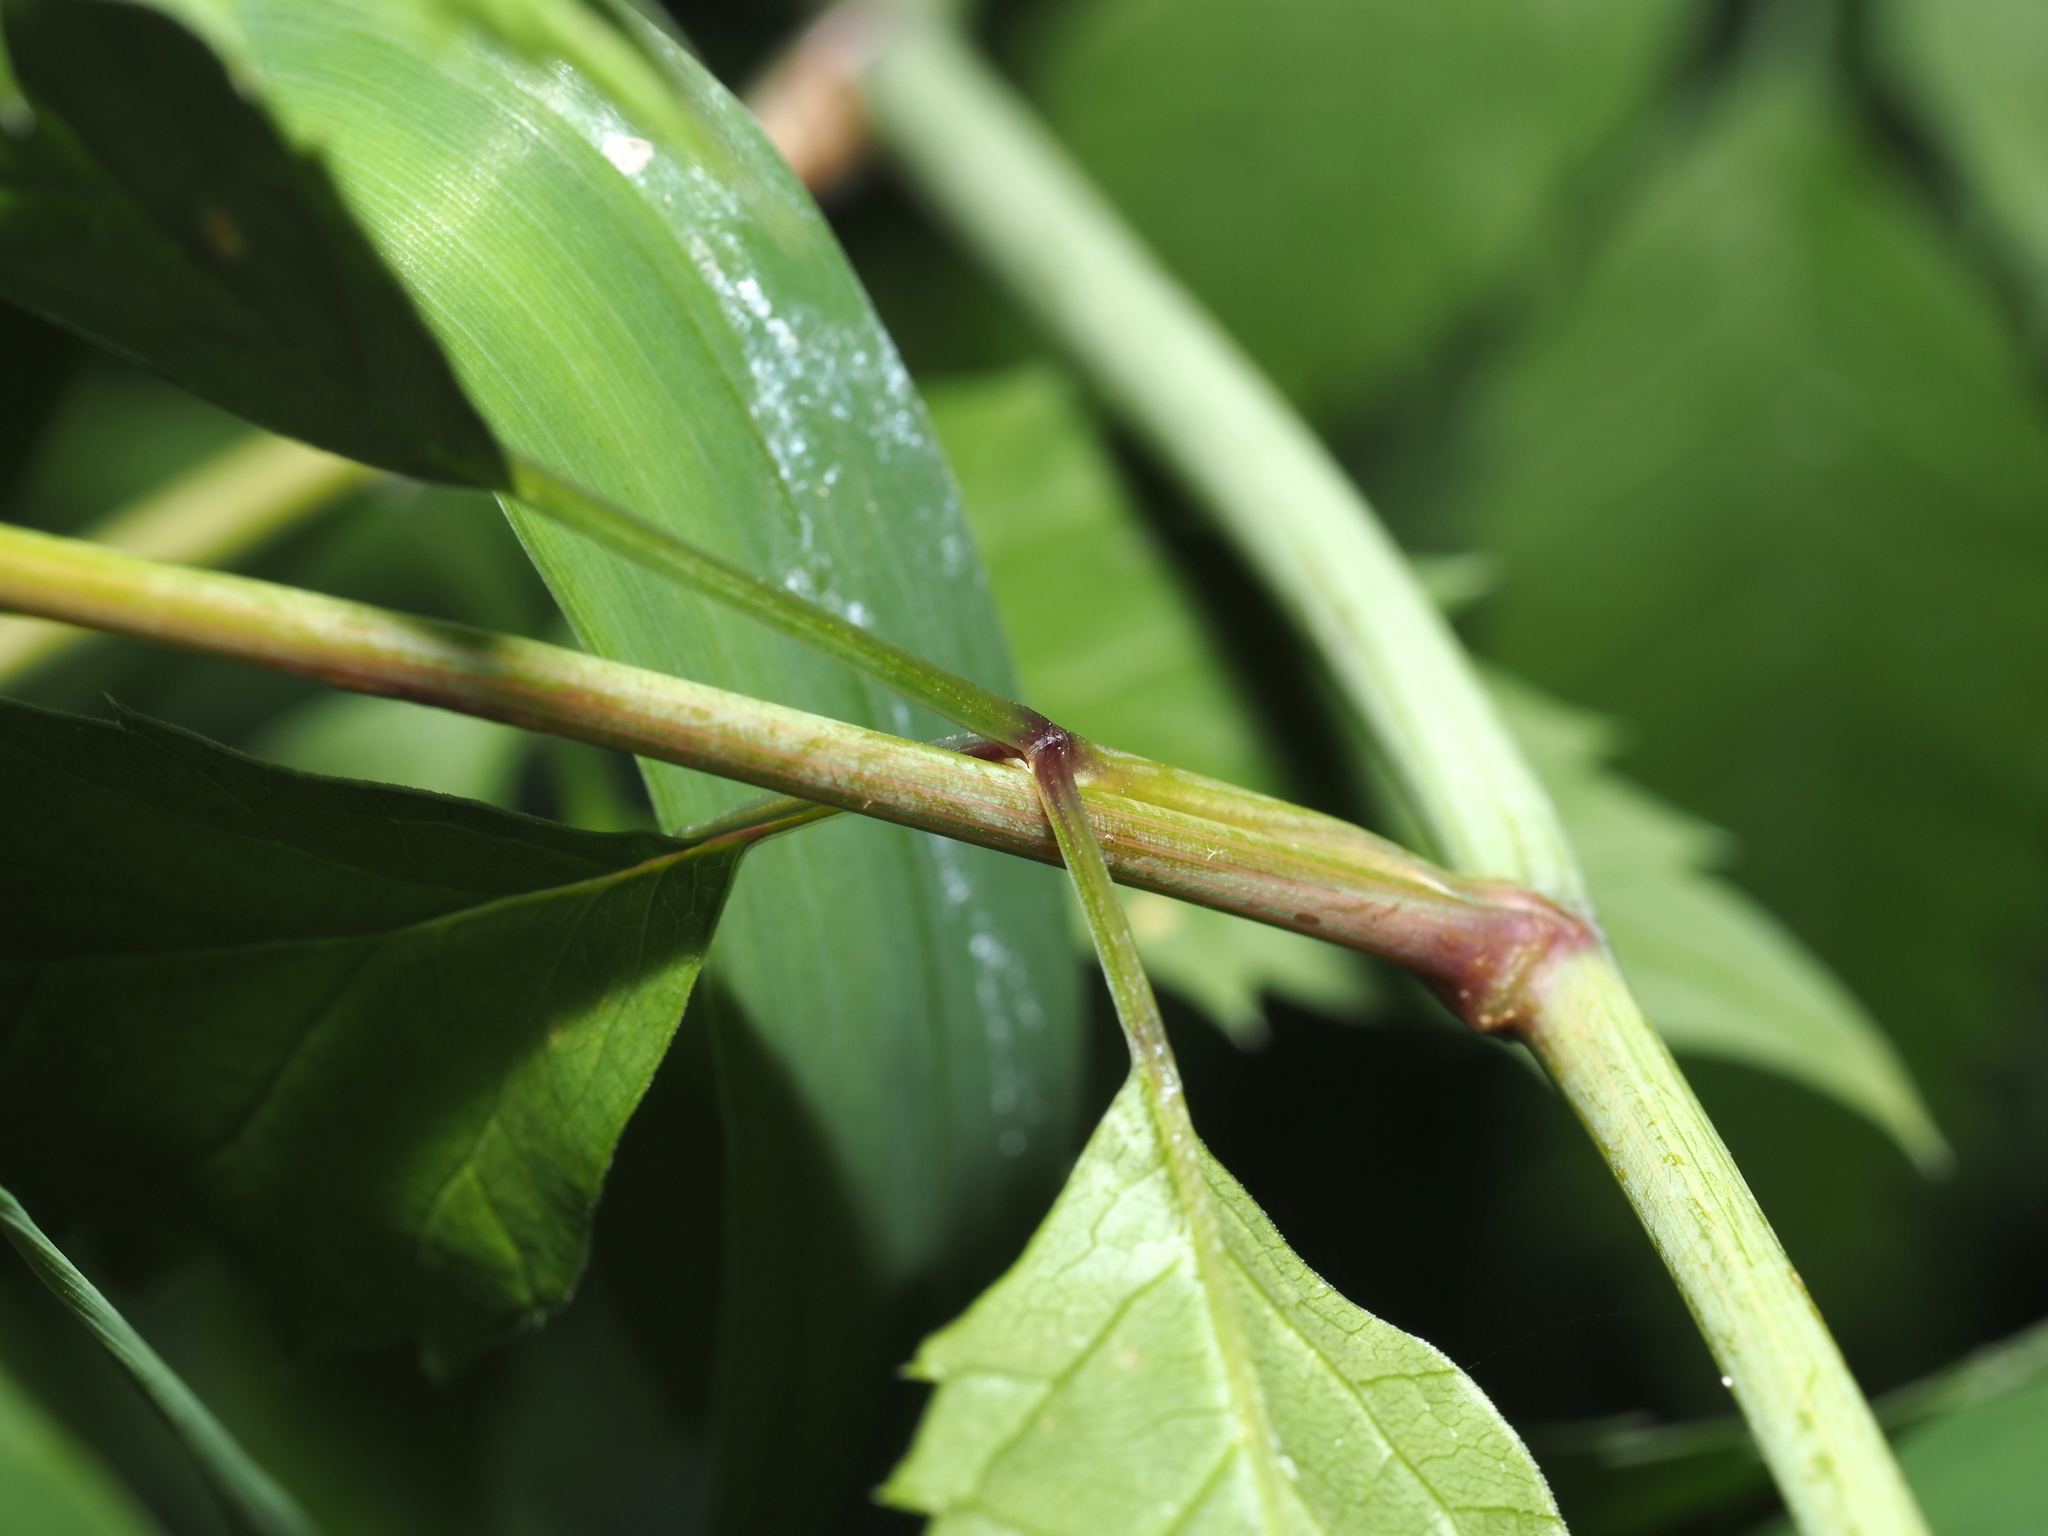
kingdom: Plantae
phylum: Tracheophyta
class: Magnoliopsida
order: Apiales
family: Apiaceae
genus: Cicuta
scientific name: Cicuta maculata
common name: Spotted cowbane
